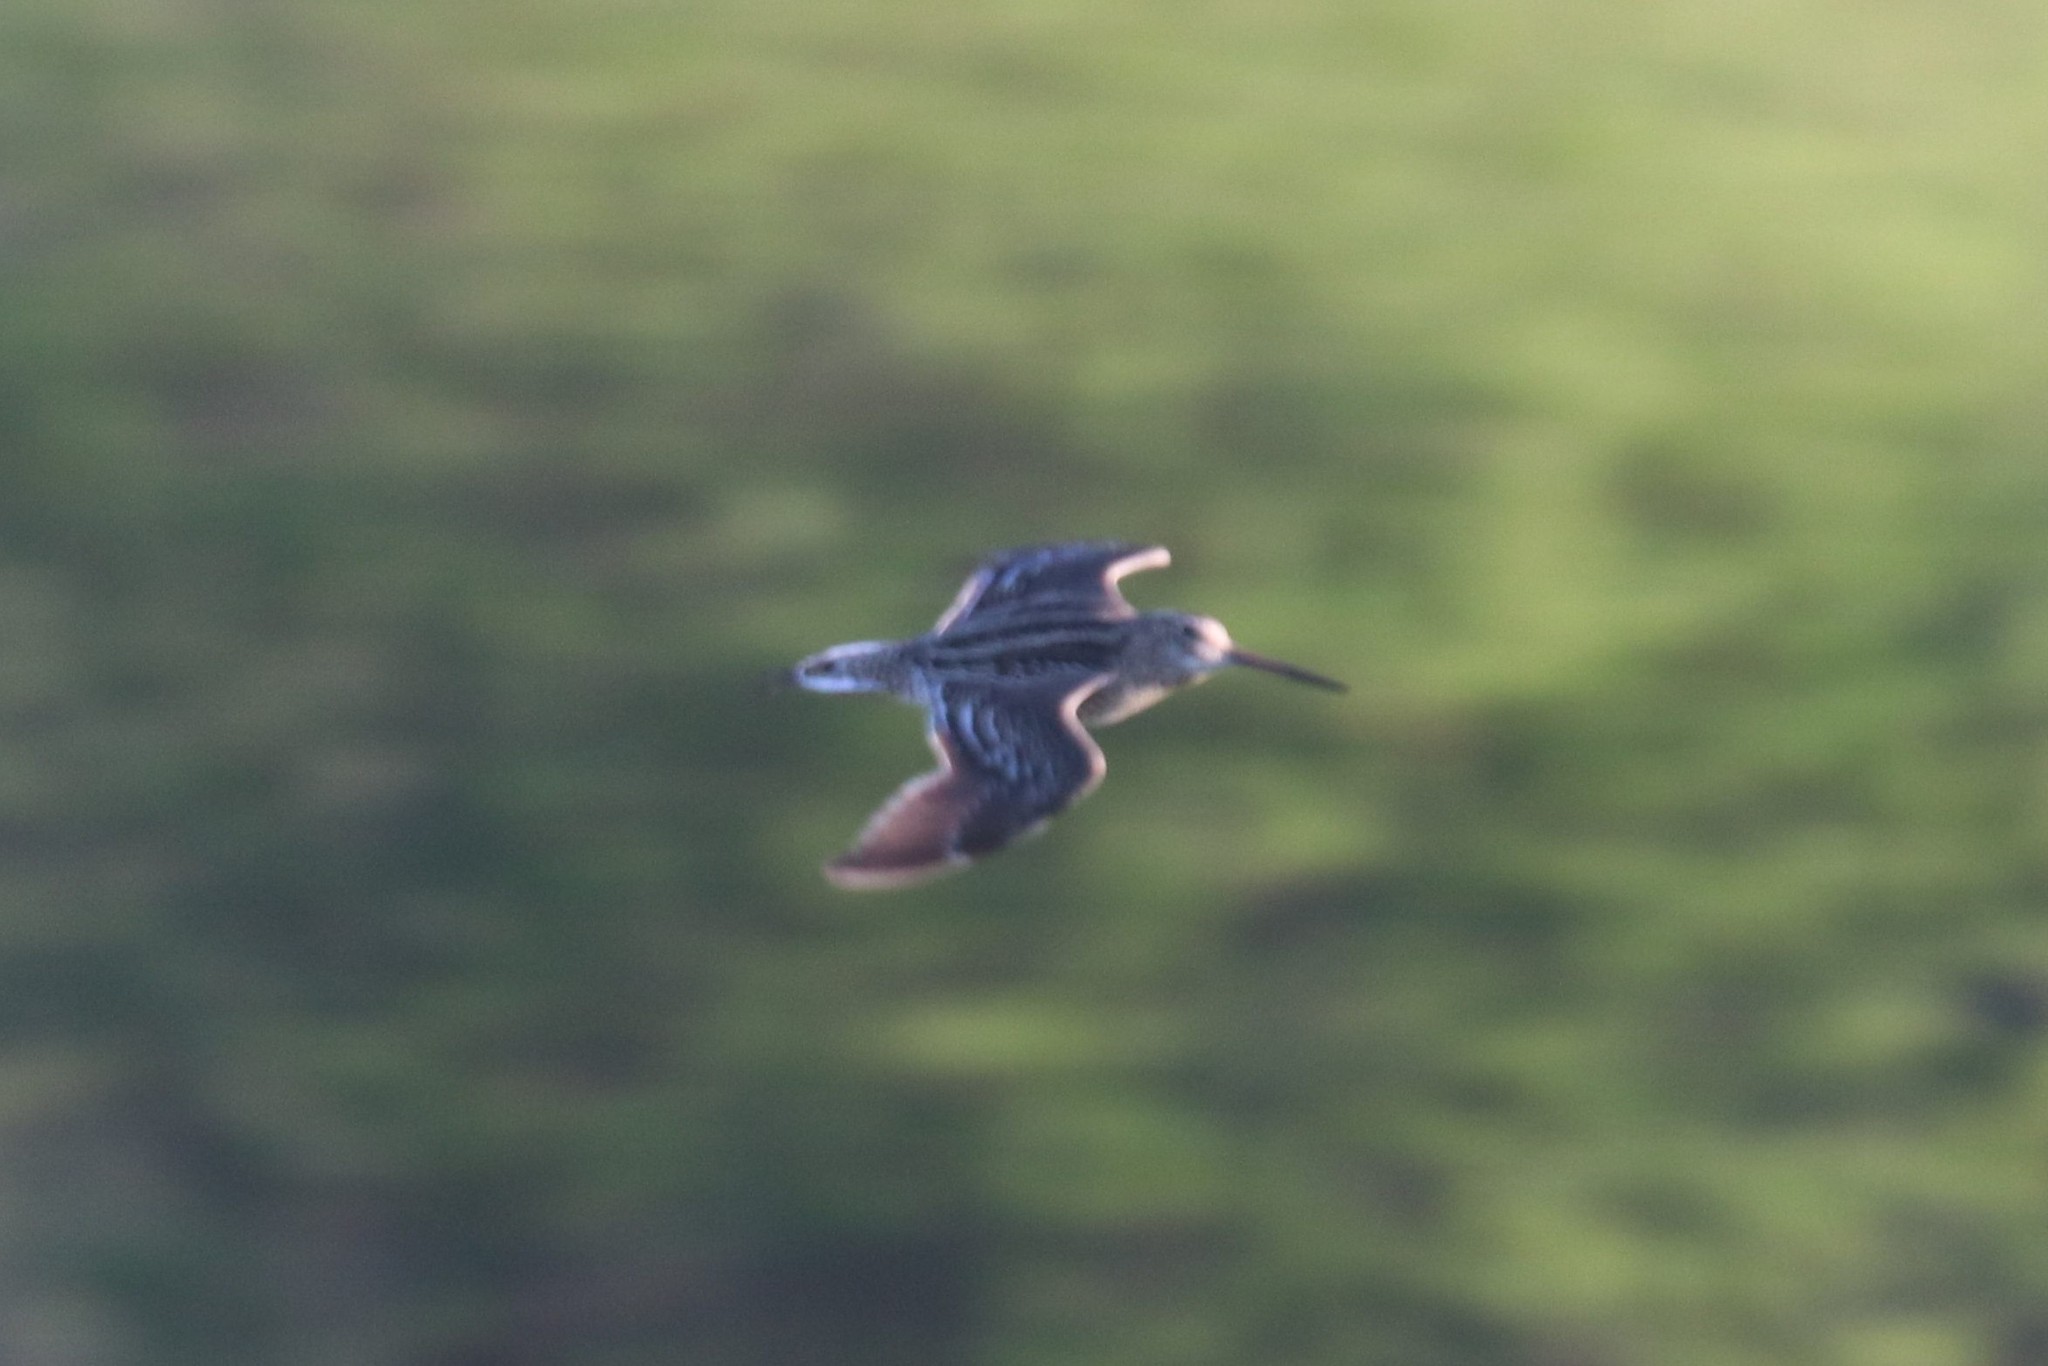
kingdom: Animalia
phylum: Chordata
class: Aves
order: Charadriiformes
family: Scolopacidae
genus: Gallinago
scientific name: Gallinago media
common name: Great snipe
